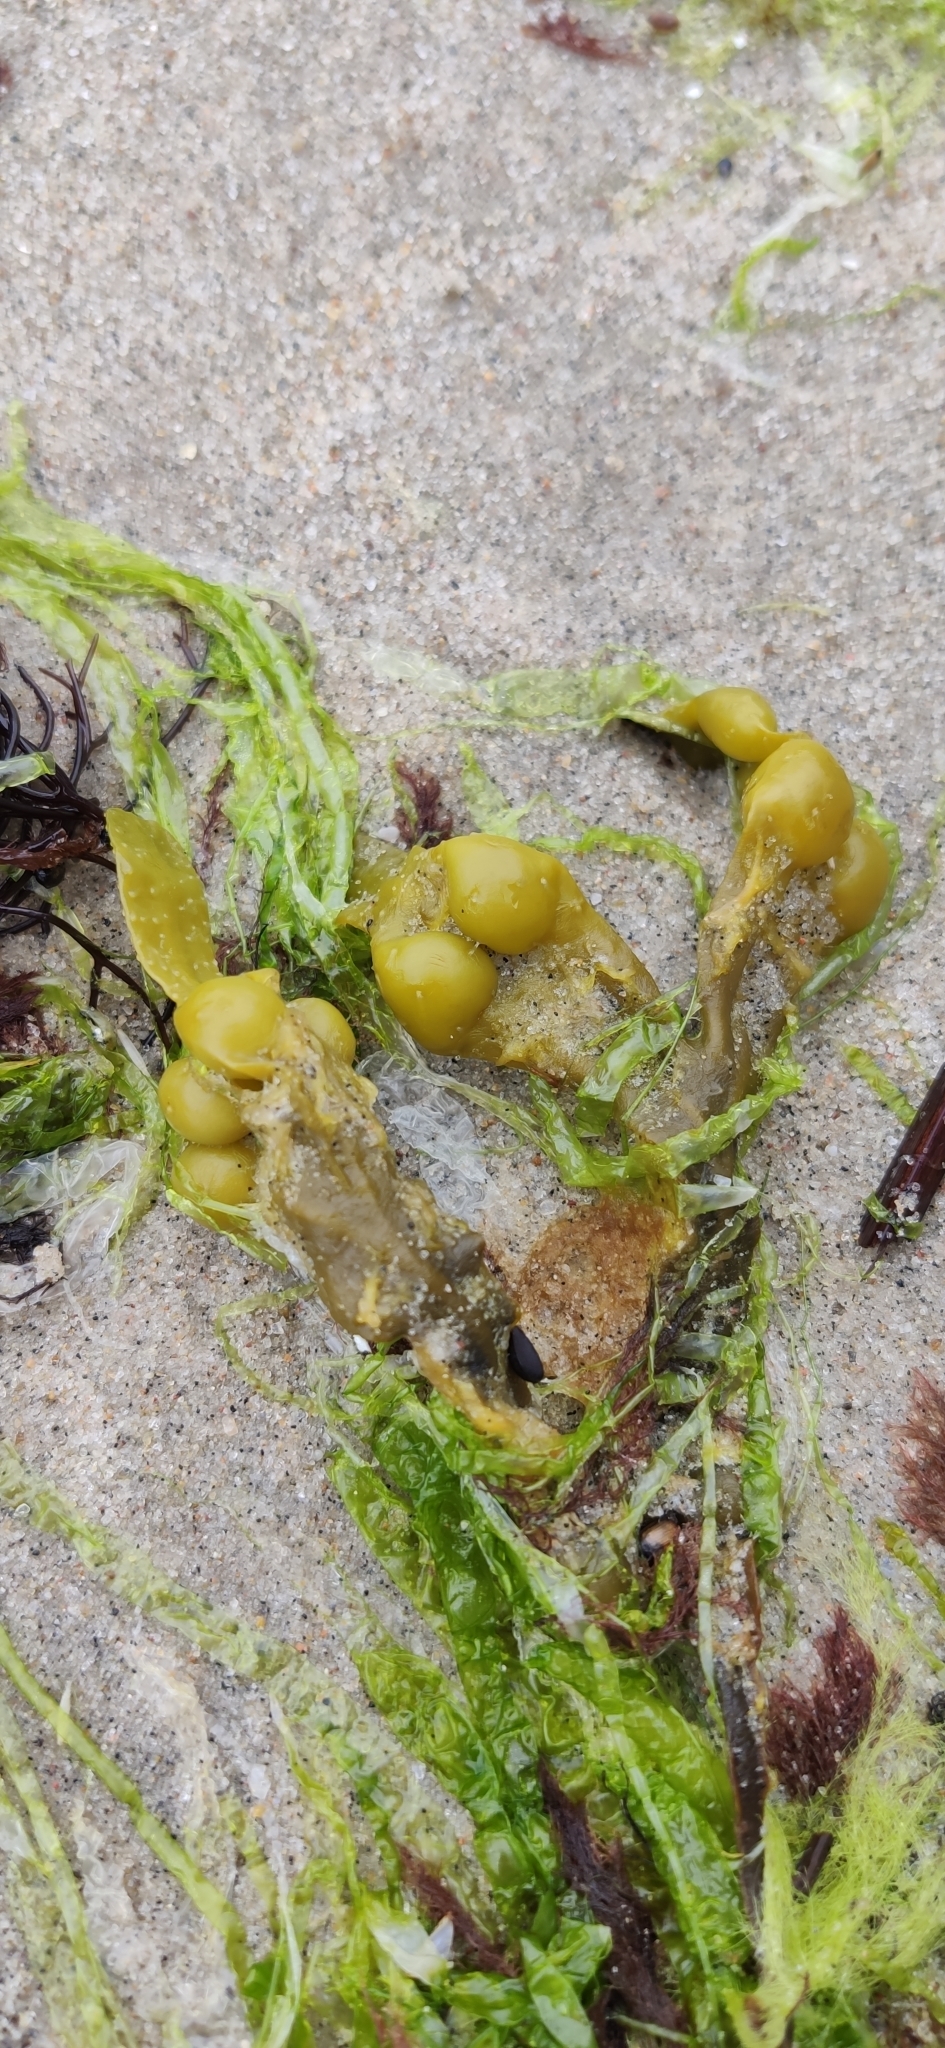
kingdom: Chromista
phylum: Ochrophyta
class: Phaeophyceae
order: Fucales
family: Fucaceae
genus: Fucus
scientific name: Fucus vesiculosus
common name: Bladder wrack
